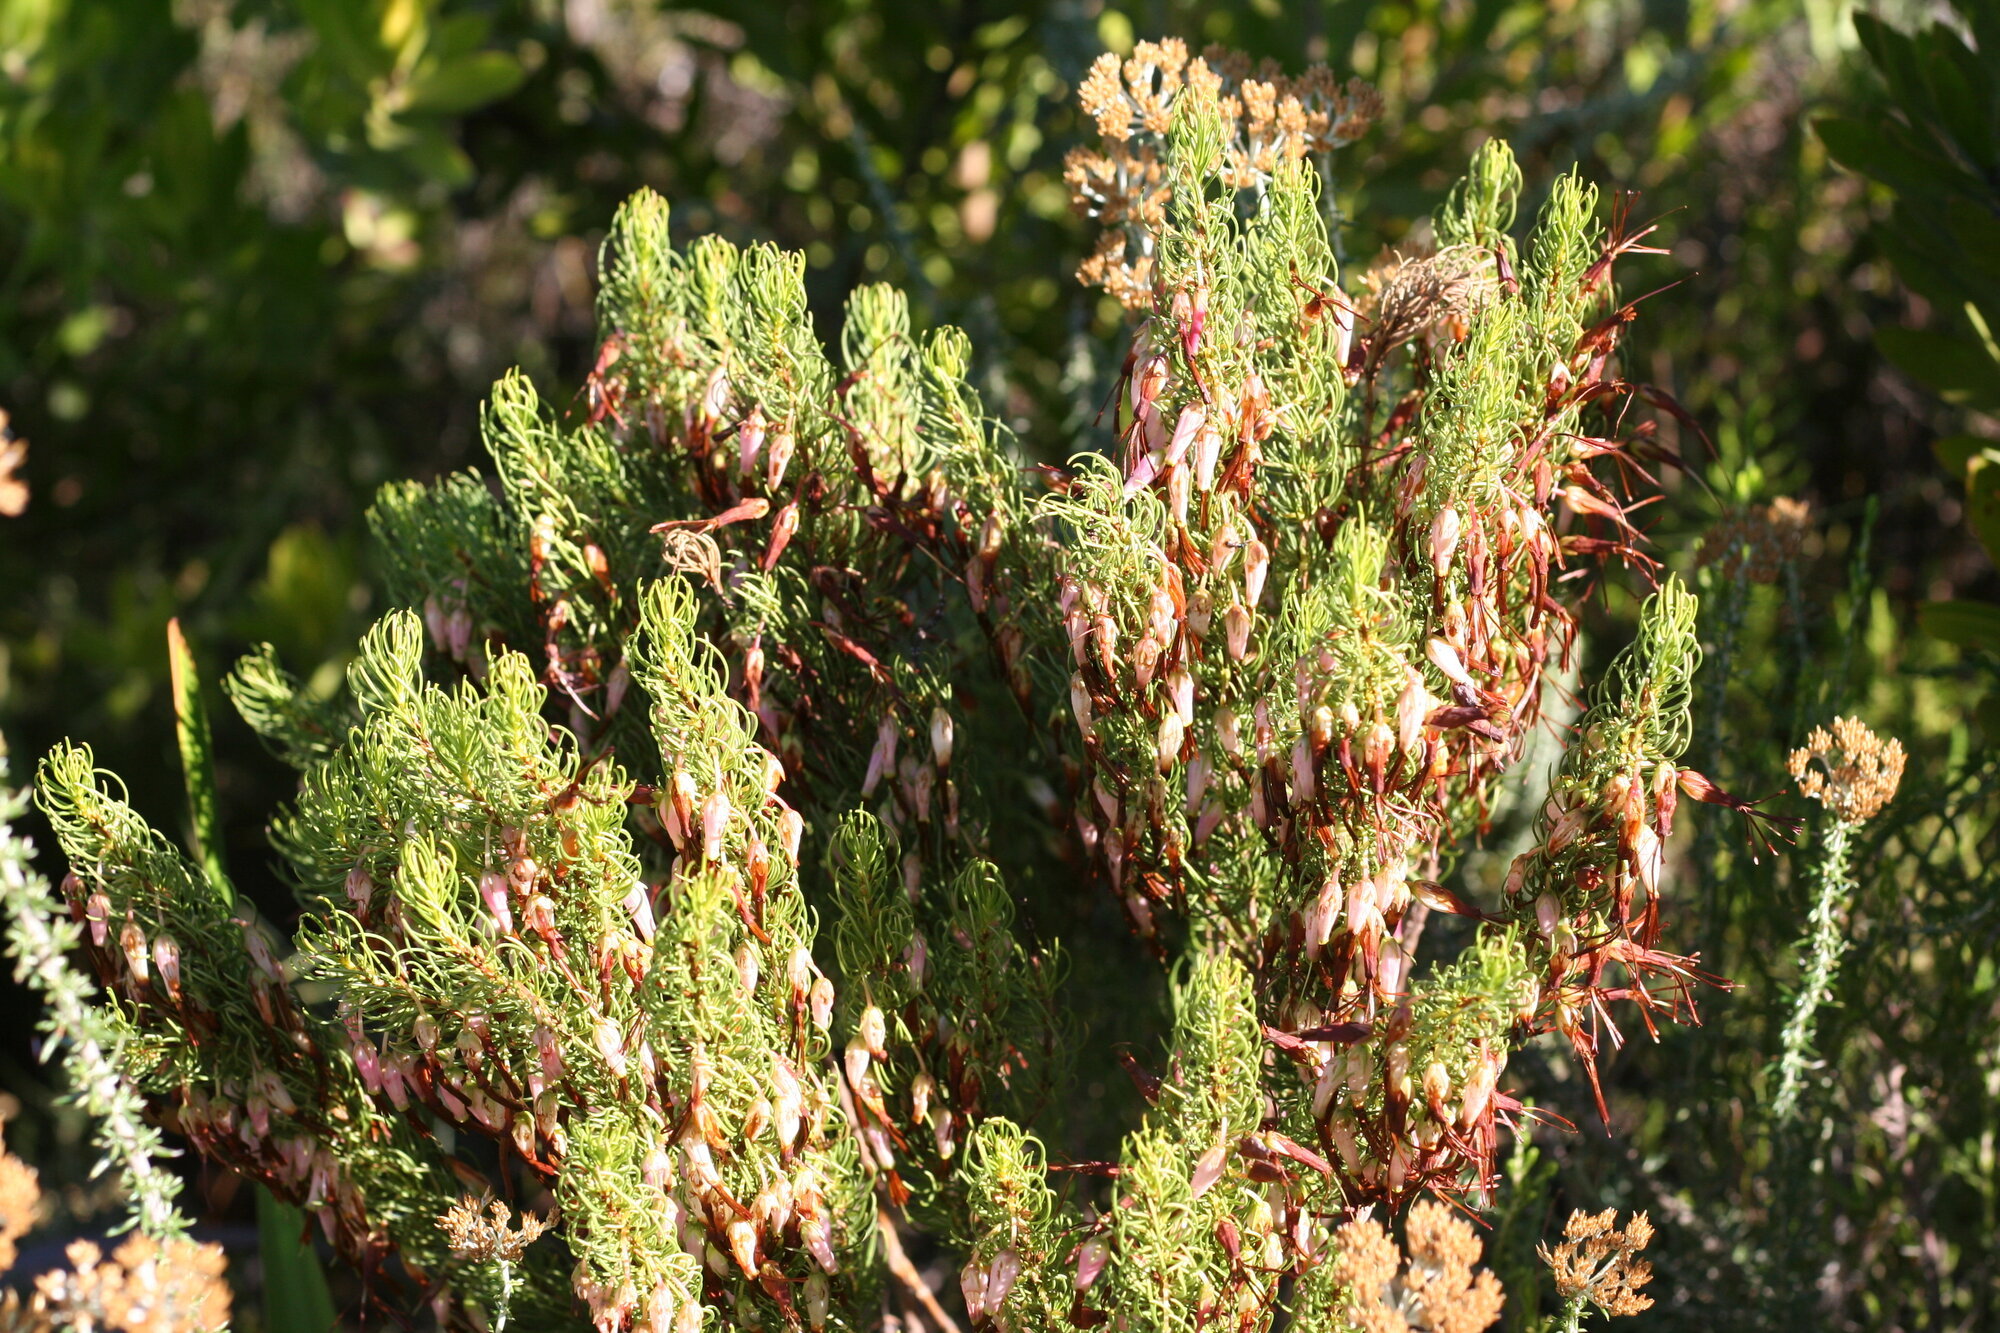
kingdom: Plantae
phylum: Tracheophyta
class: Magnoliopsida
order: Ericales
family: Ericaceae
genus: Erica
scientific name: Erica plukenetii
